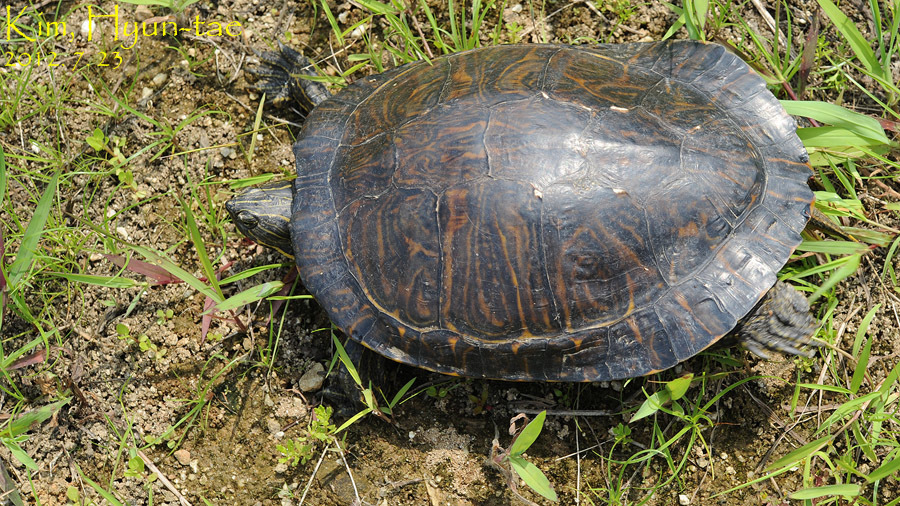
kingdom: Animalia
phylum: Chordata
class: Testudines
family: Emydidae
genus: Pseudemys
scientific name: Pseudemys concinna
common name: Eastern river cooter
